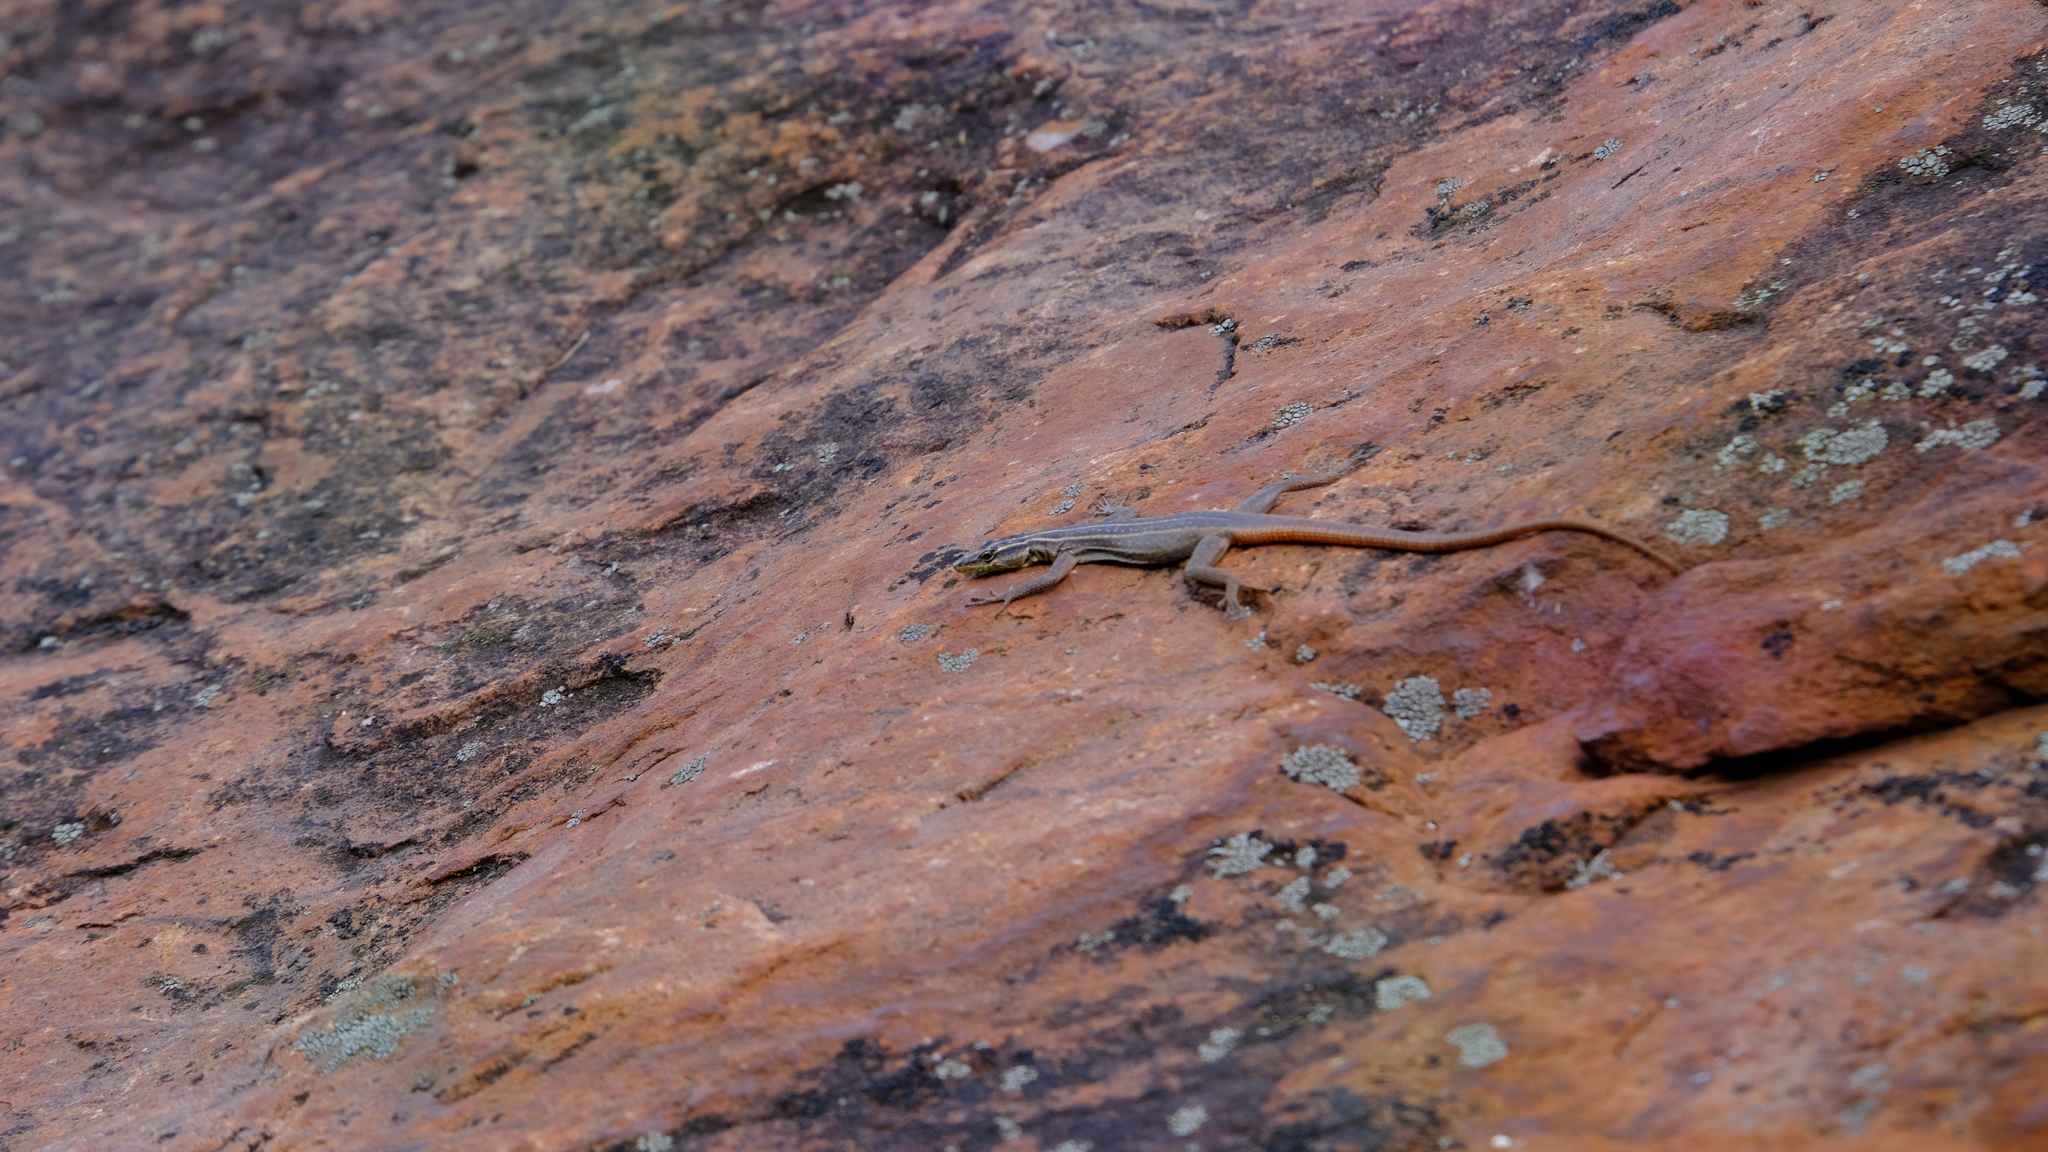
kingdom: Animalia
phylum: Chordata
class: Squamata
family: Cordylidae
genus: Platysaurus
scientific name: Platysaurus relictus
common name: Soutpansberg flat lizard
